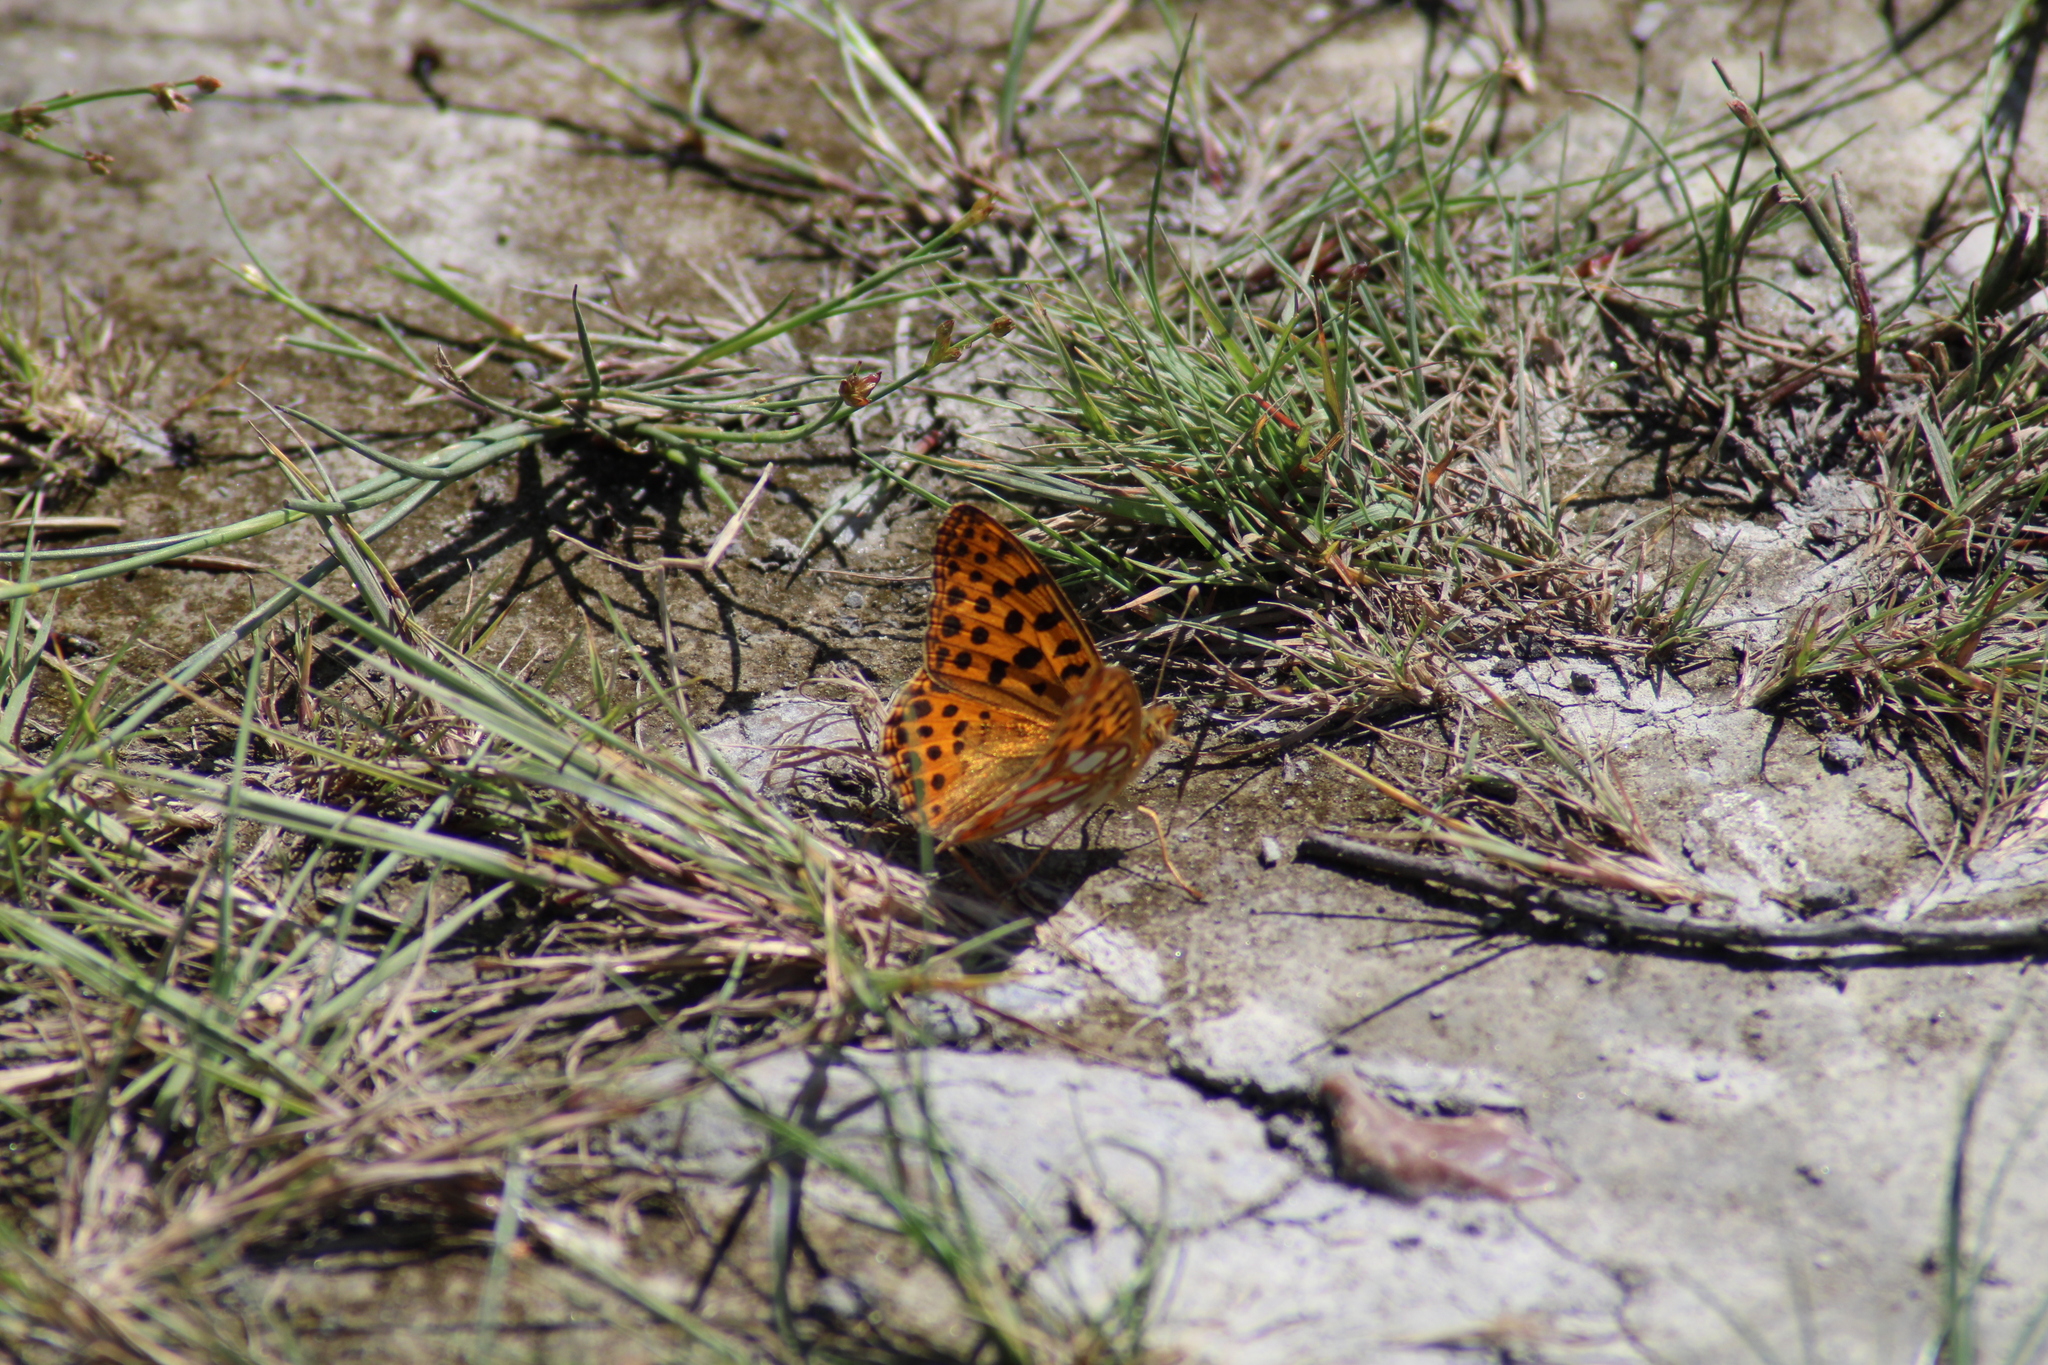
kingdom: Animalia
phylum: Arthropoda
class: Insecta
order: Lepidoptera
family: Nymphalidae
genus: Issoria
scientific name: Issoria lathonia
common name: Queen of spain fritillary
